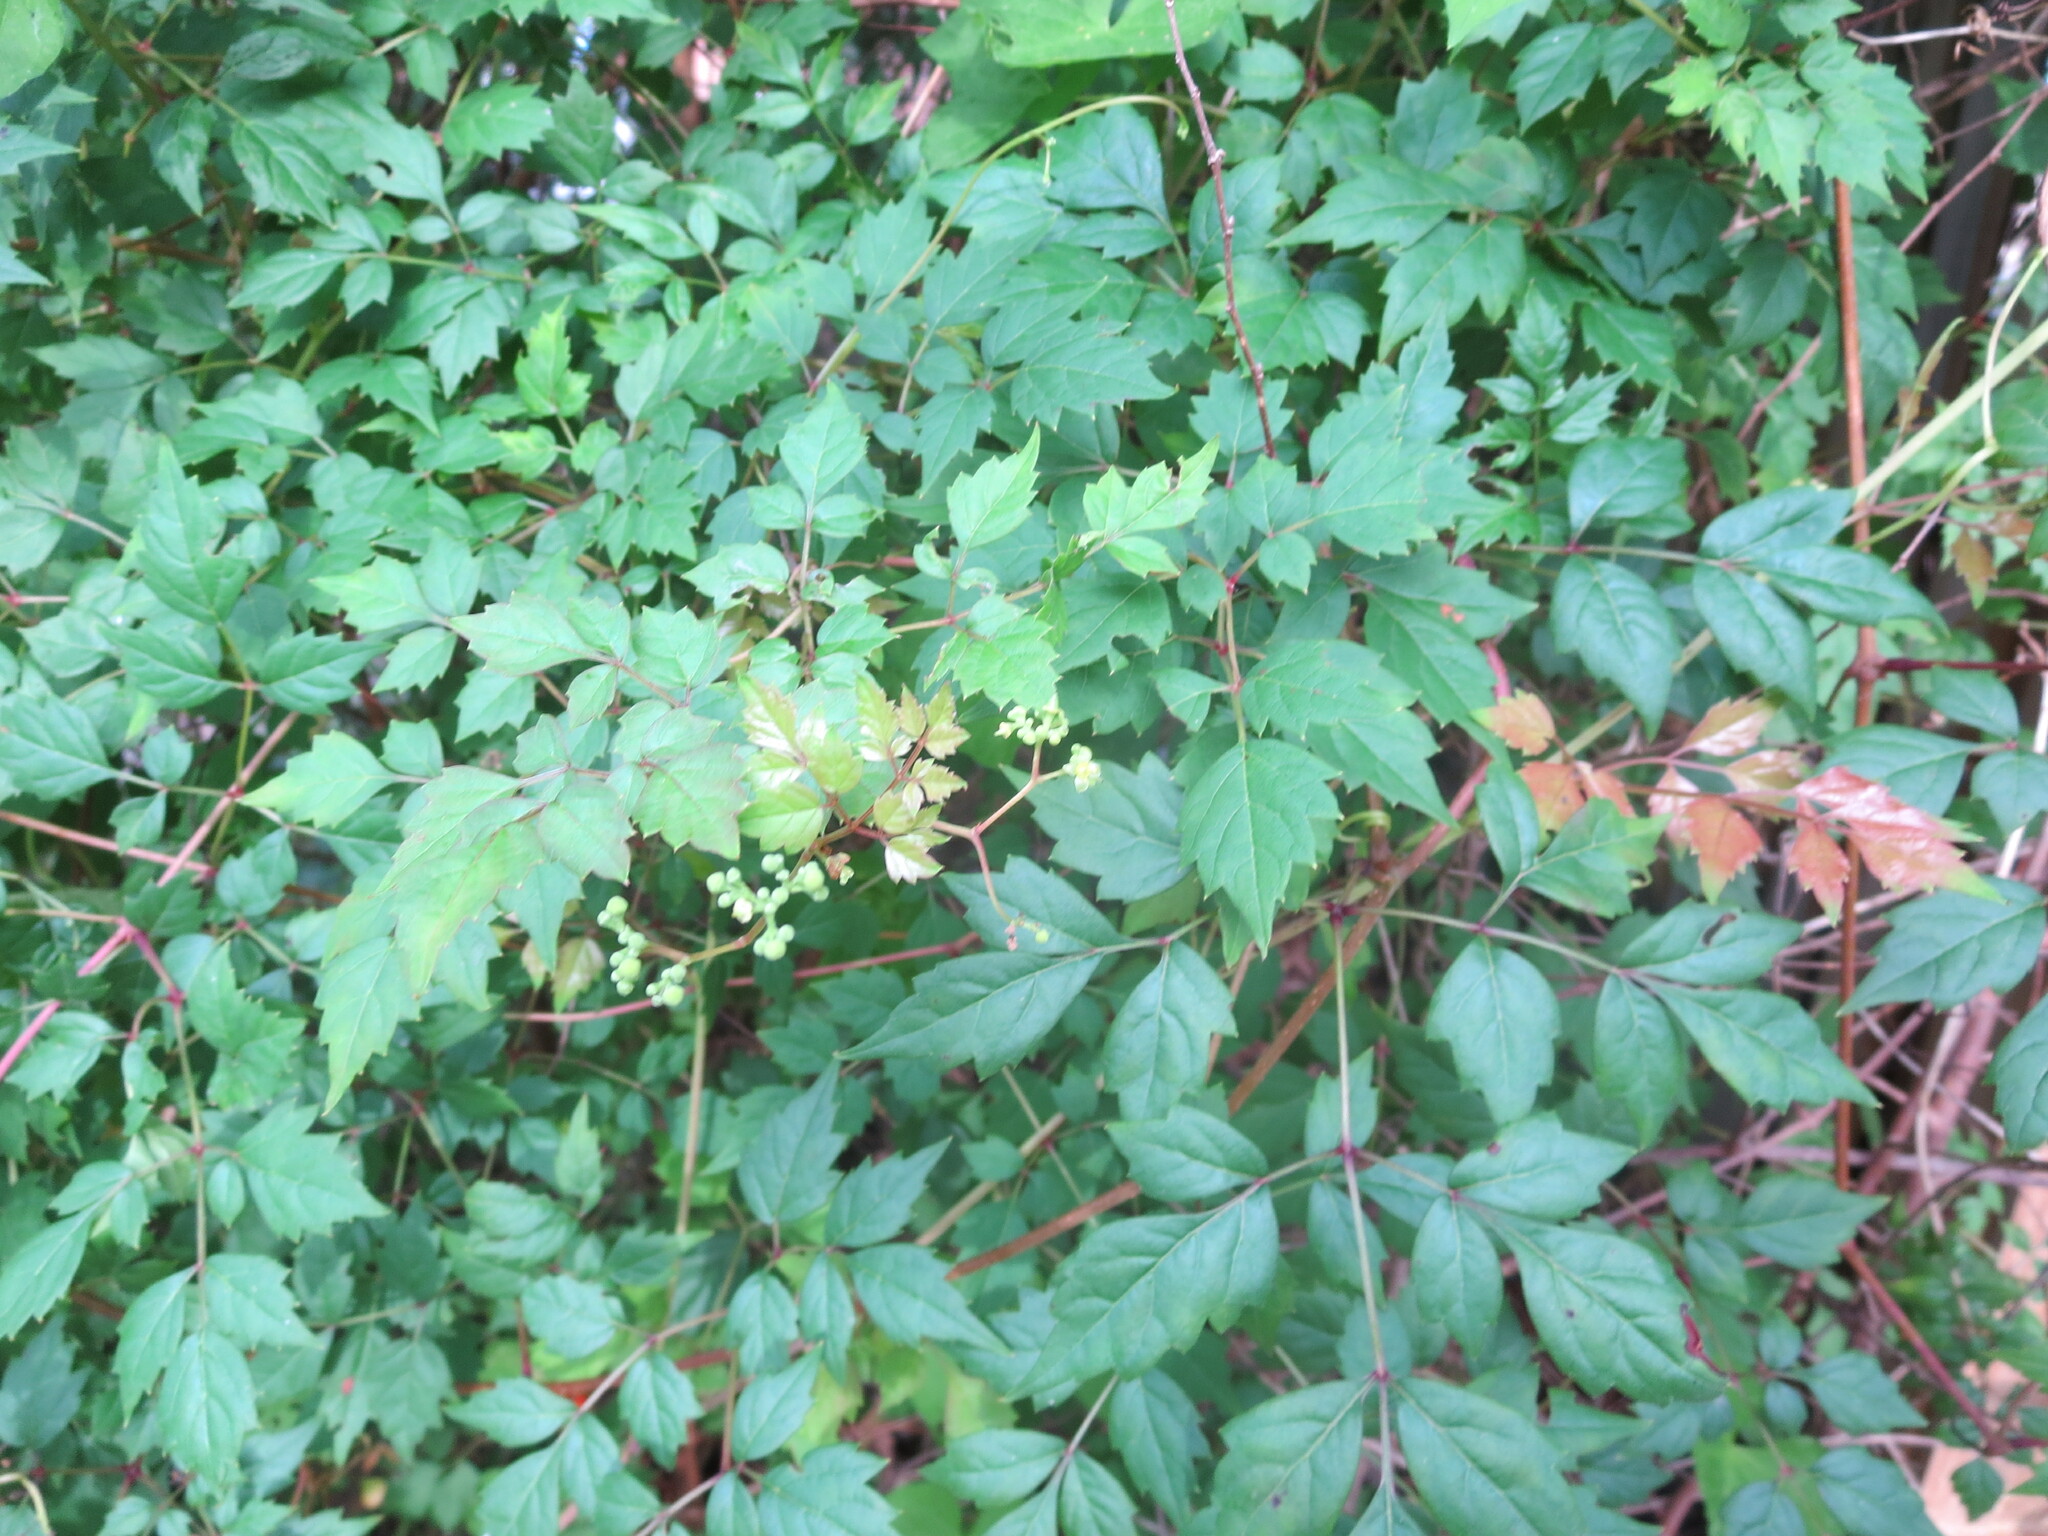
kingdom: Plantae
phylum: Tracheophyta
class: Magnoliopsida
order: Vitales
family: Vitaceae
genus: Nekemias
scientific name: Nekemias arborea
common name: Peppervine
